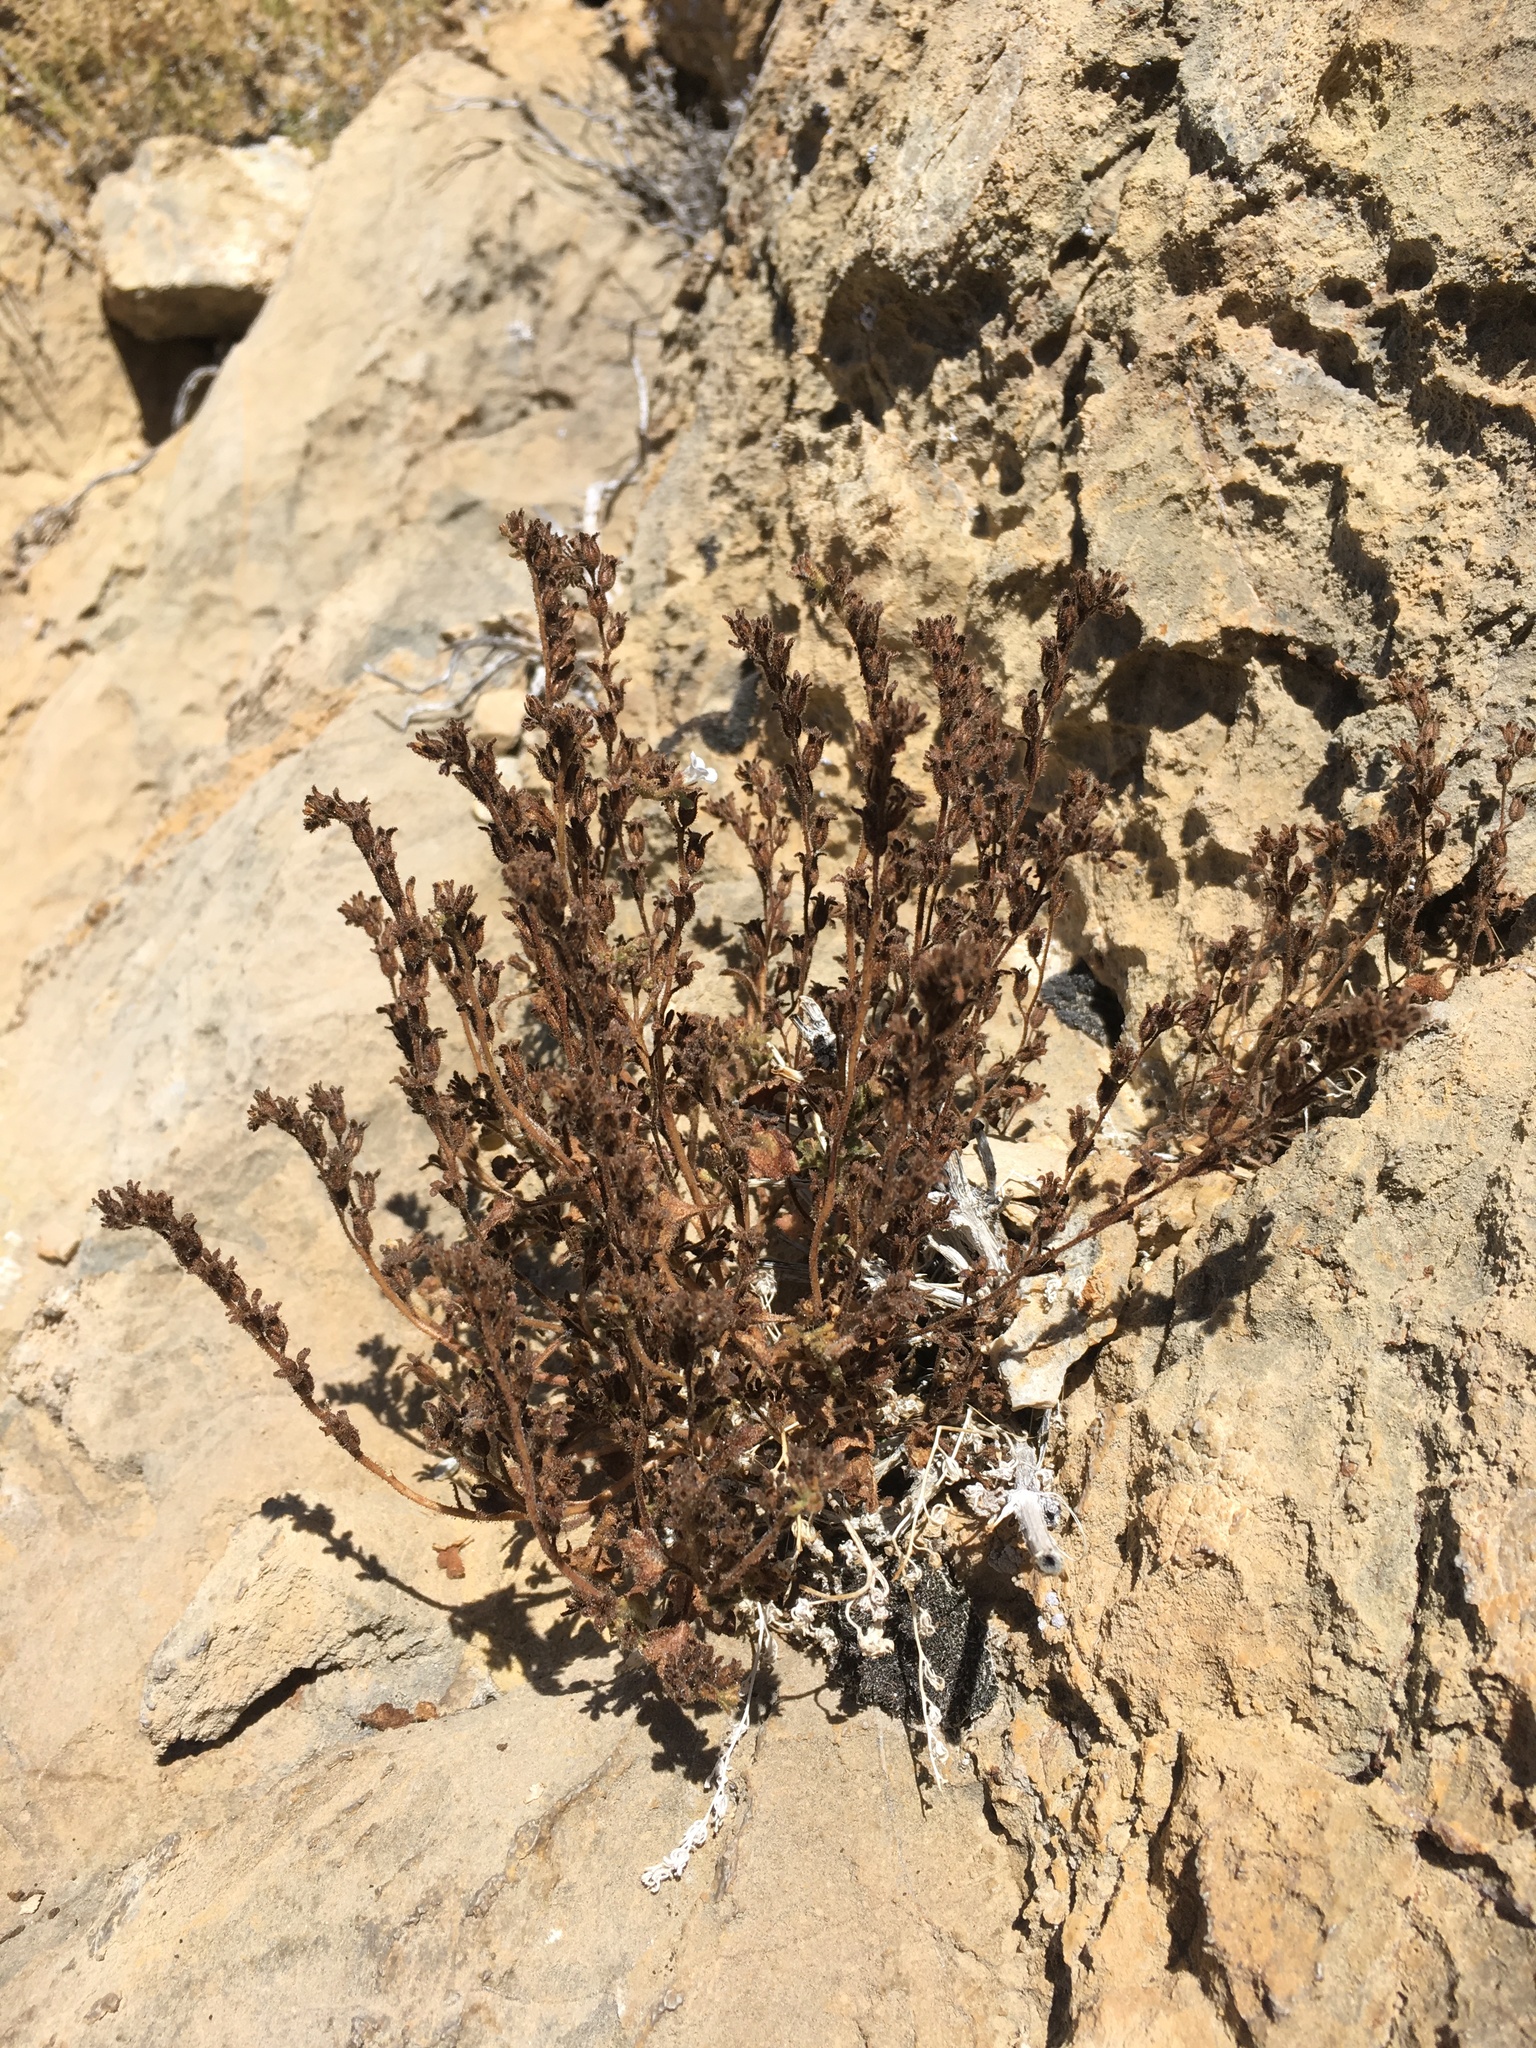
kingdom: Plantae
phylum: Tracheophyta
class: Magnoliopsida
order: Boraginales
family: Hydrophyllaceae
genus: Phacelia
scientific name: Phacelia rotundifolia
